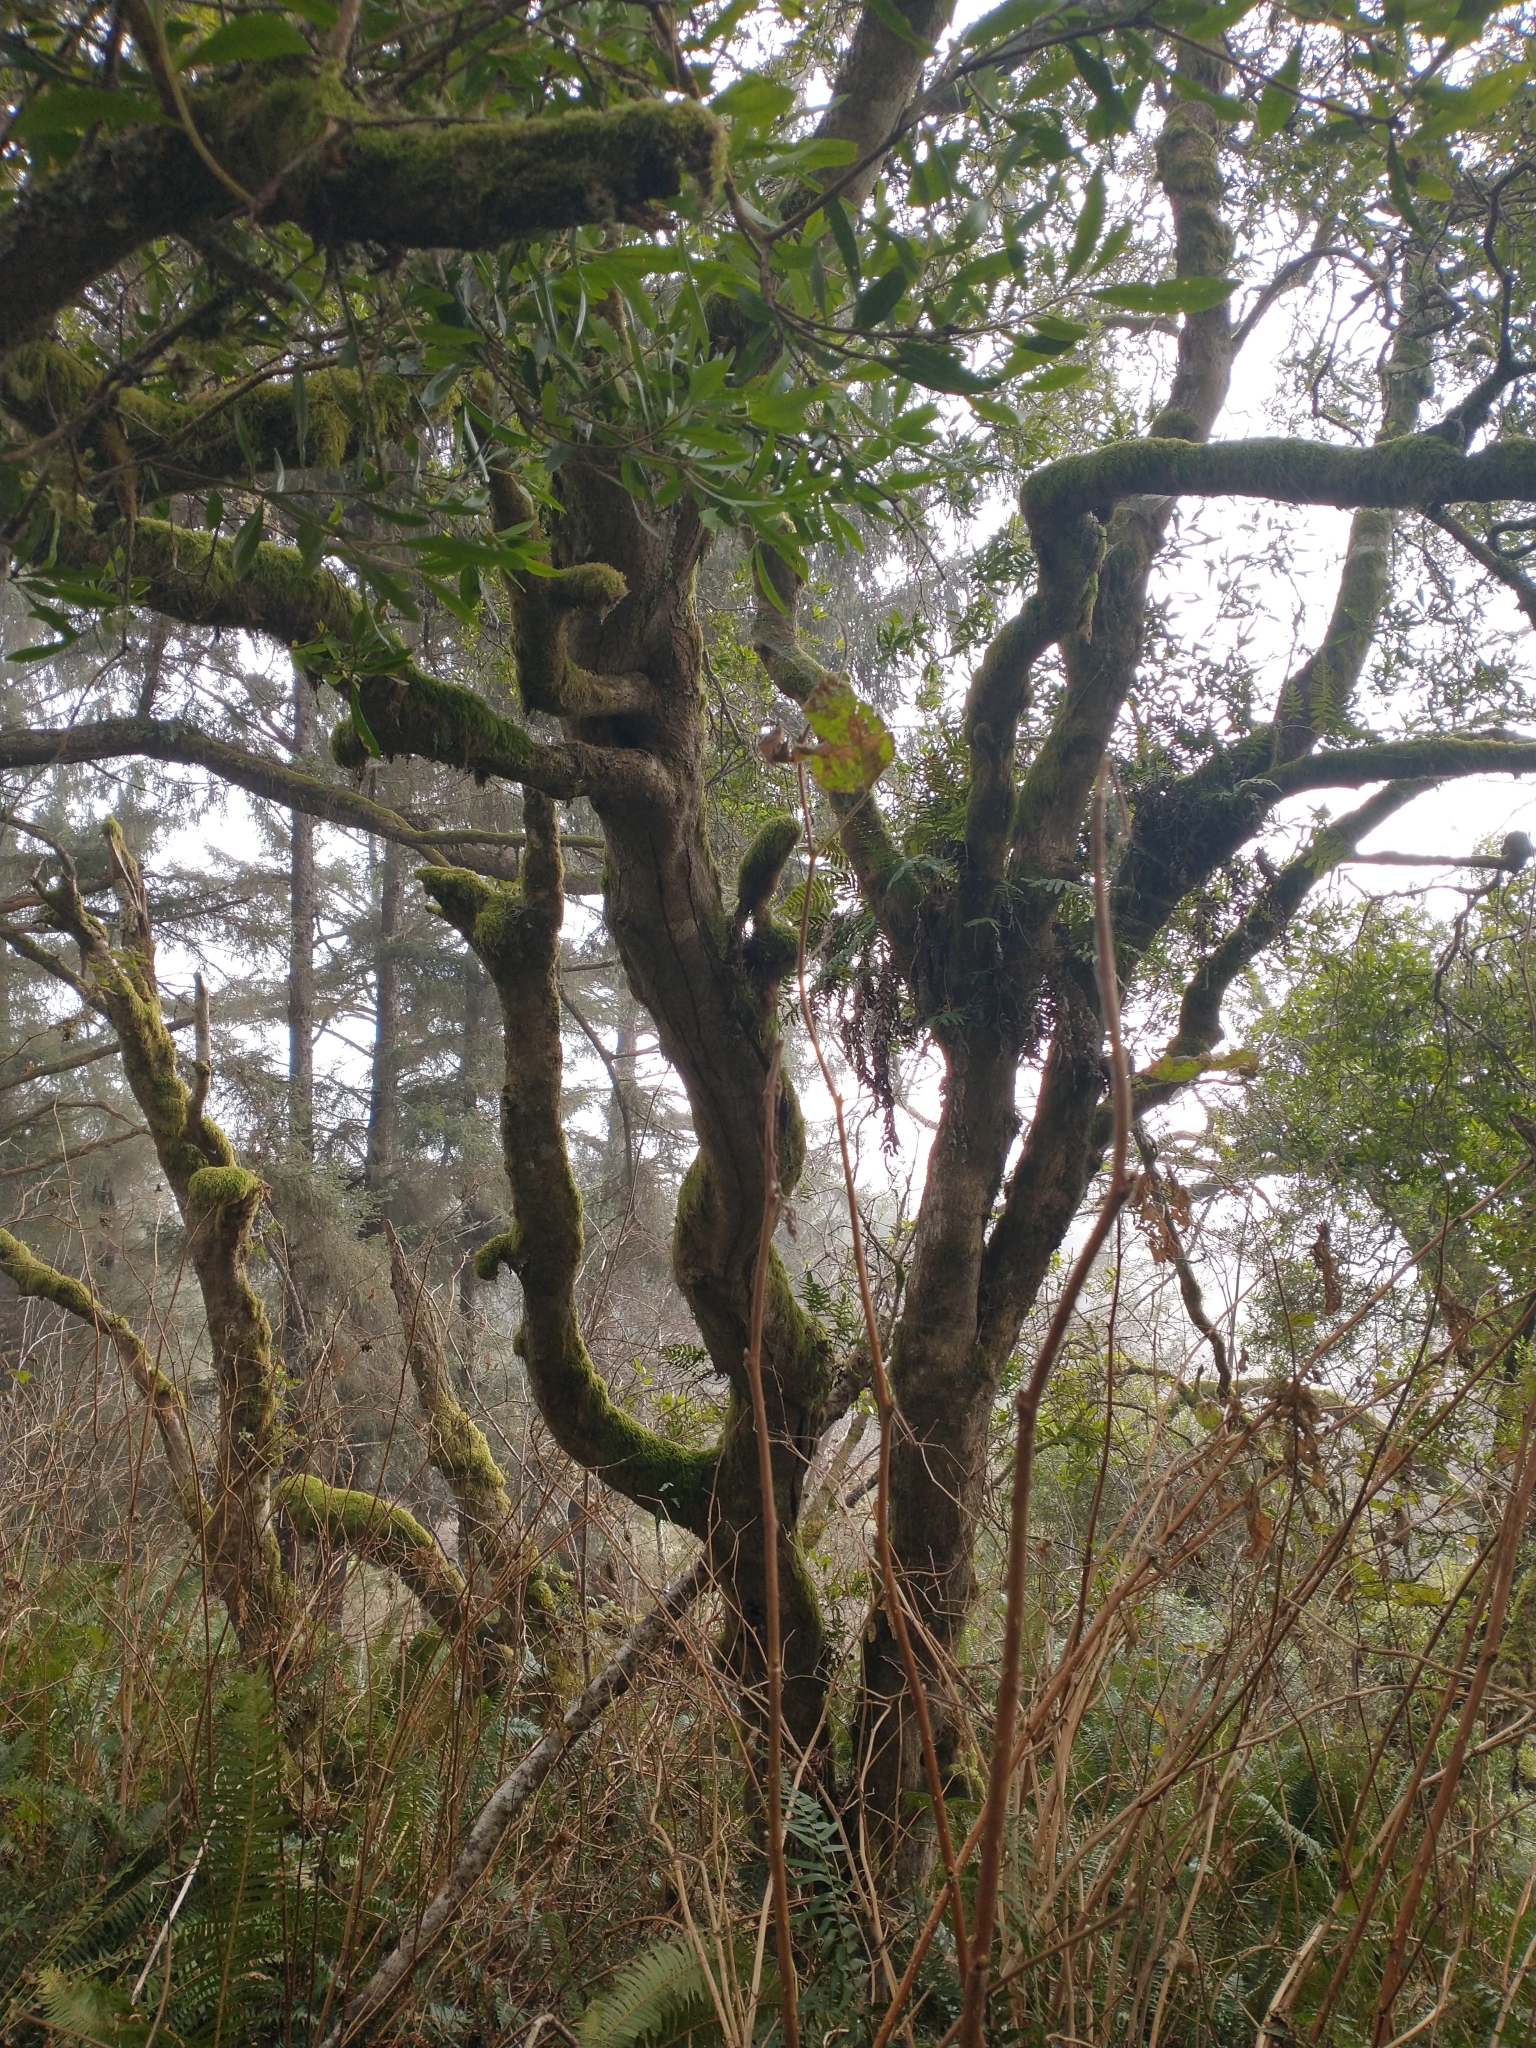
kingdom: Plantae
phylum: Tracheophyta
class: Magnoliopsida
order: Fagales
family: Myricaceae
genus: Morella
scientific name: Morella californica
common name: California wax-myrtle
